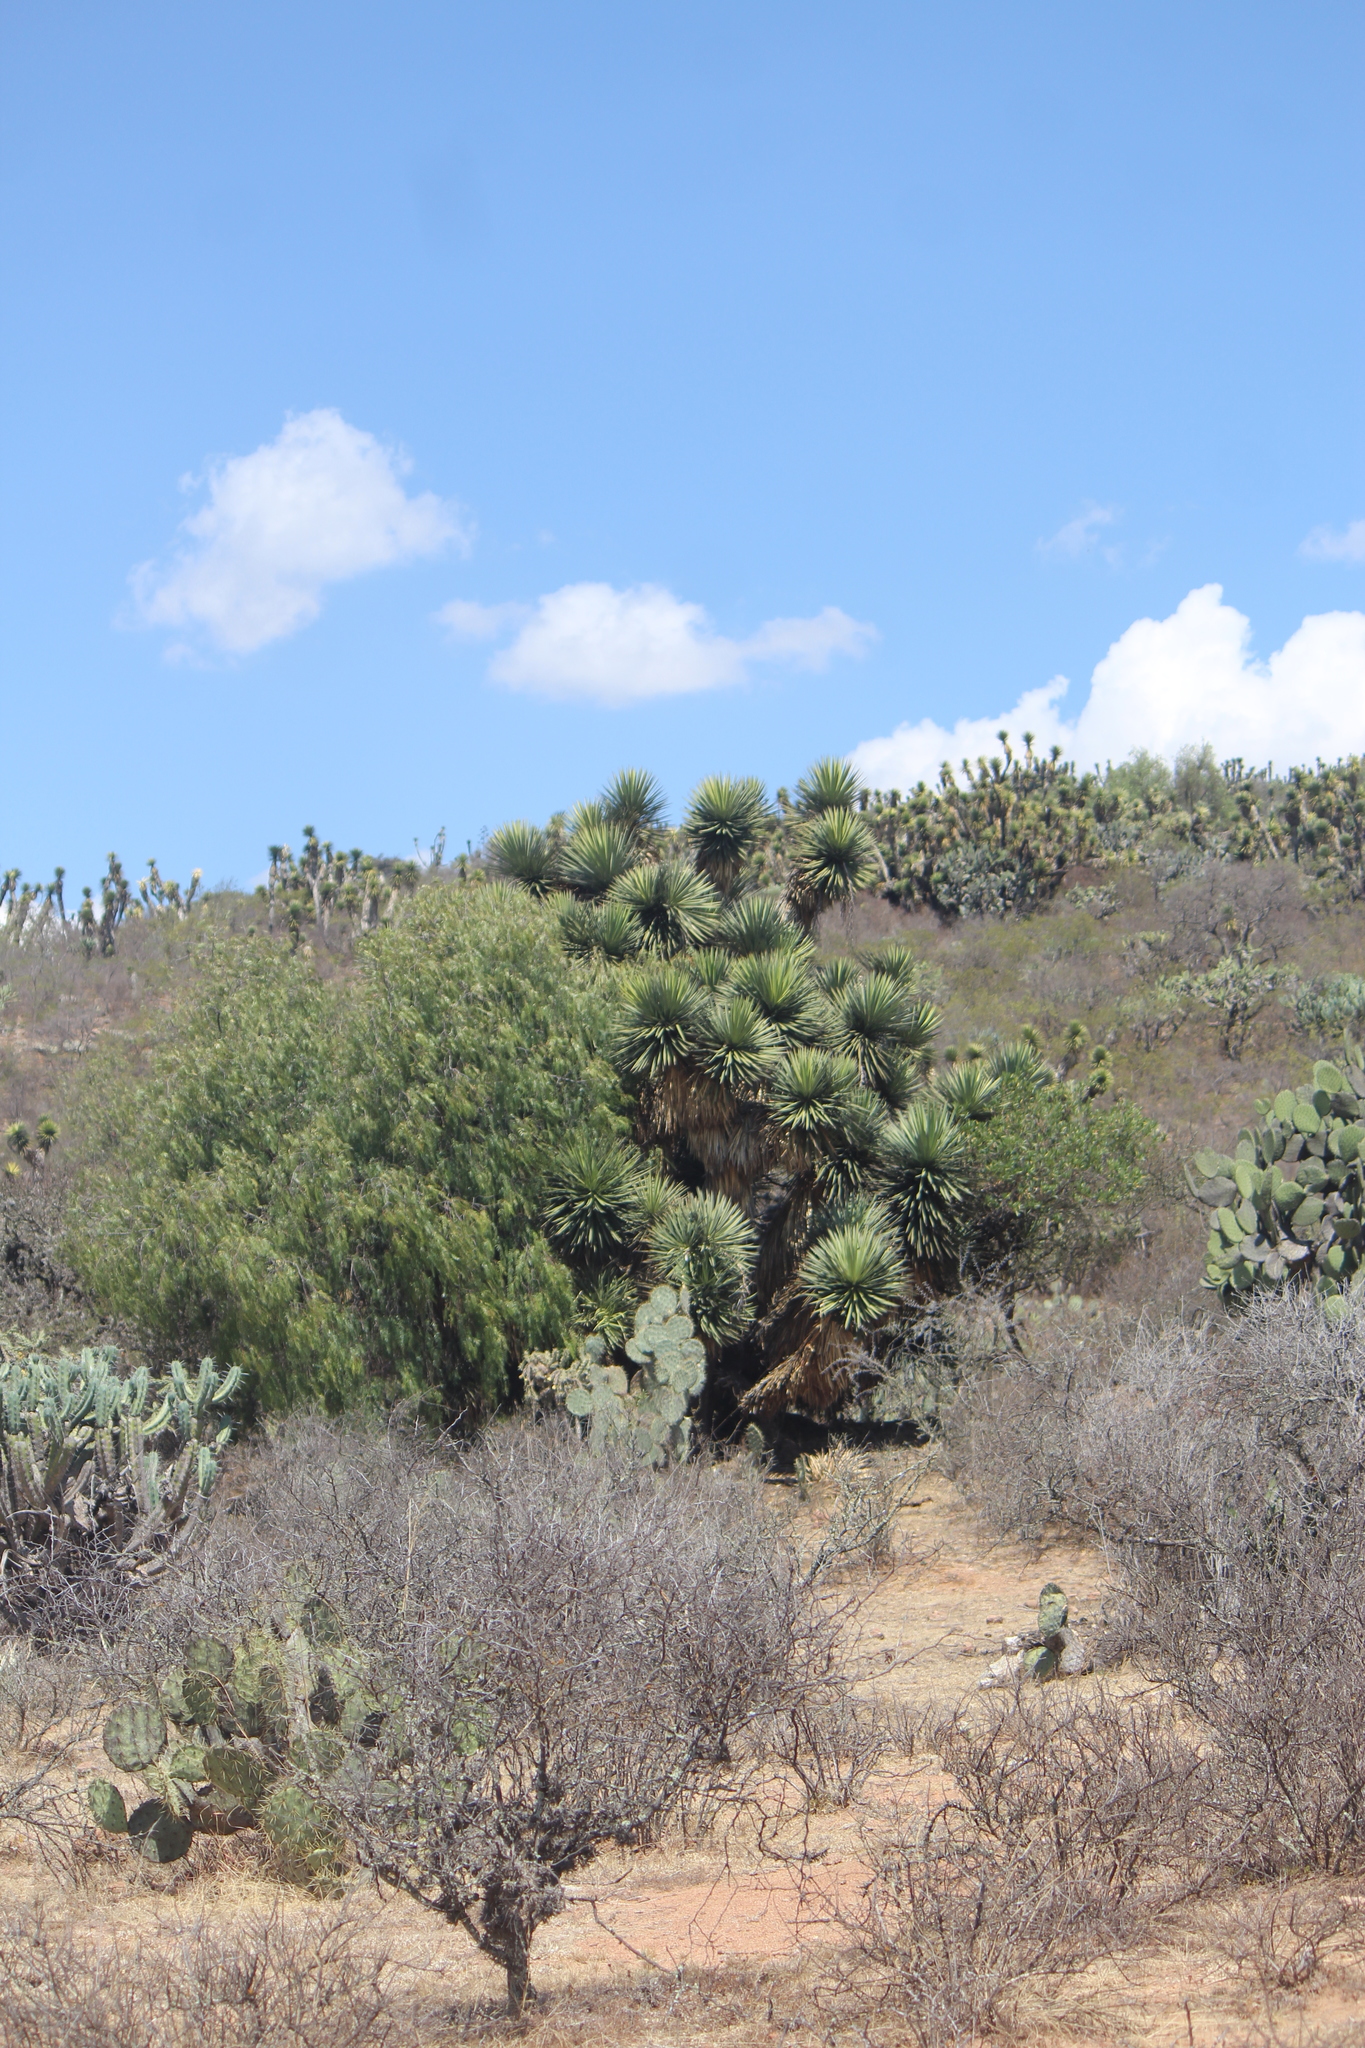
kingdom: Plantae
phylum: Tracheophyta
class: Liliopsida
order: Asparagales
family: Asparagaceae
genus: Yucca
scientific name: Yucca filifera
